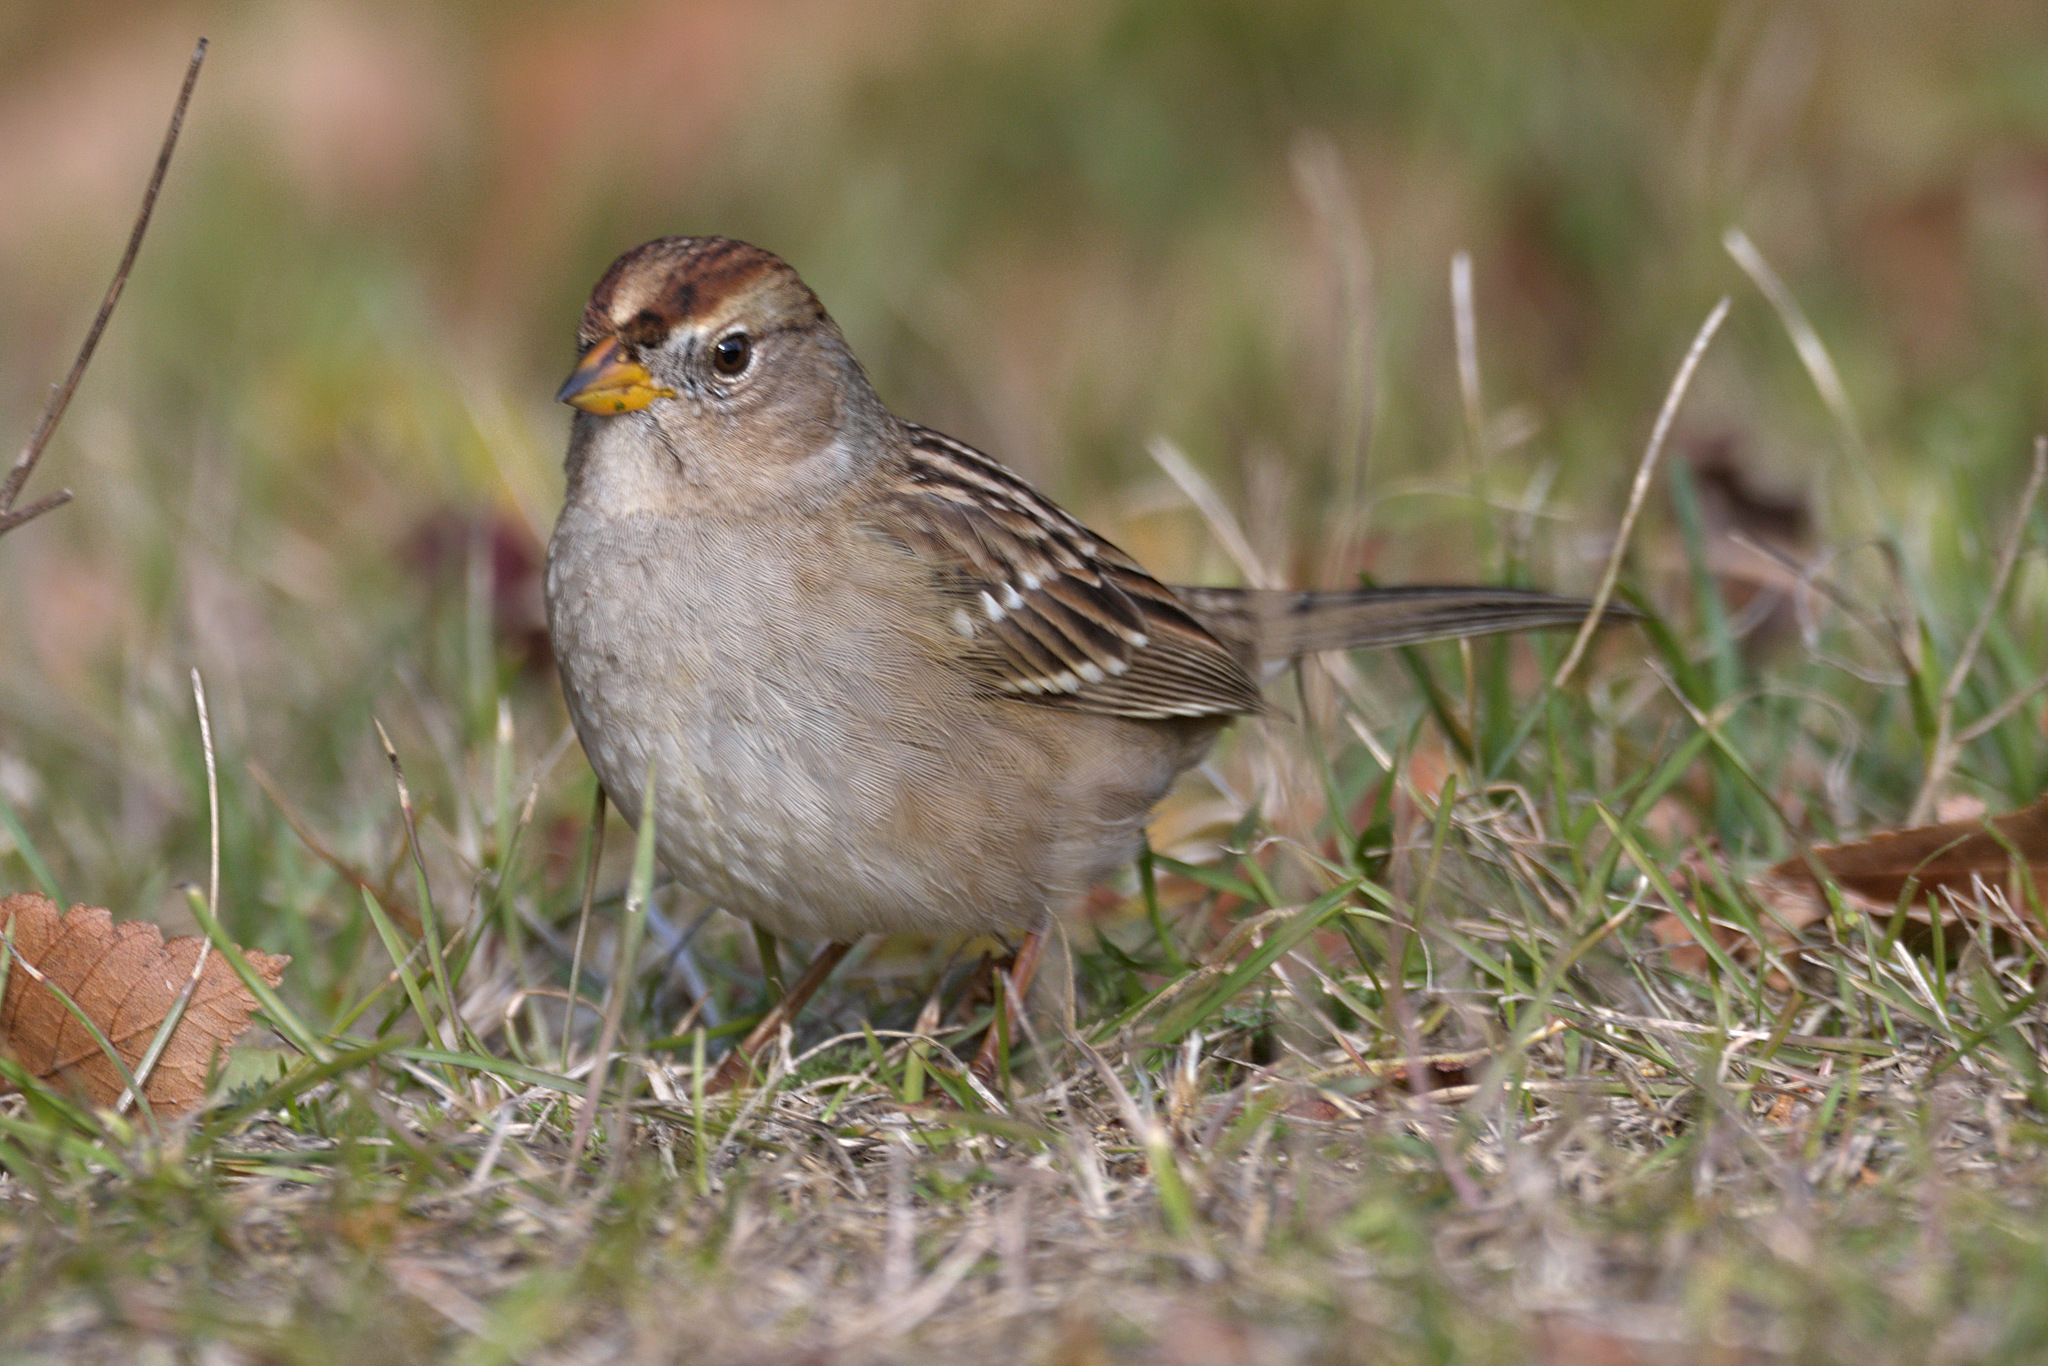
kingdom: Animalia
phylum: Chordata
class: Aves
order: Passeriformes
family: Passerellidae
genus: Zonotrichia
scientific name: Zonotrichia leucophrys
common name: White-crowned sparrow
